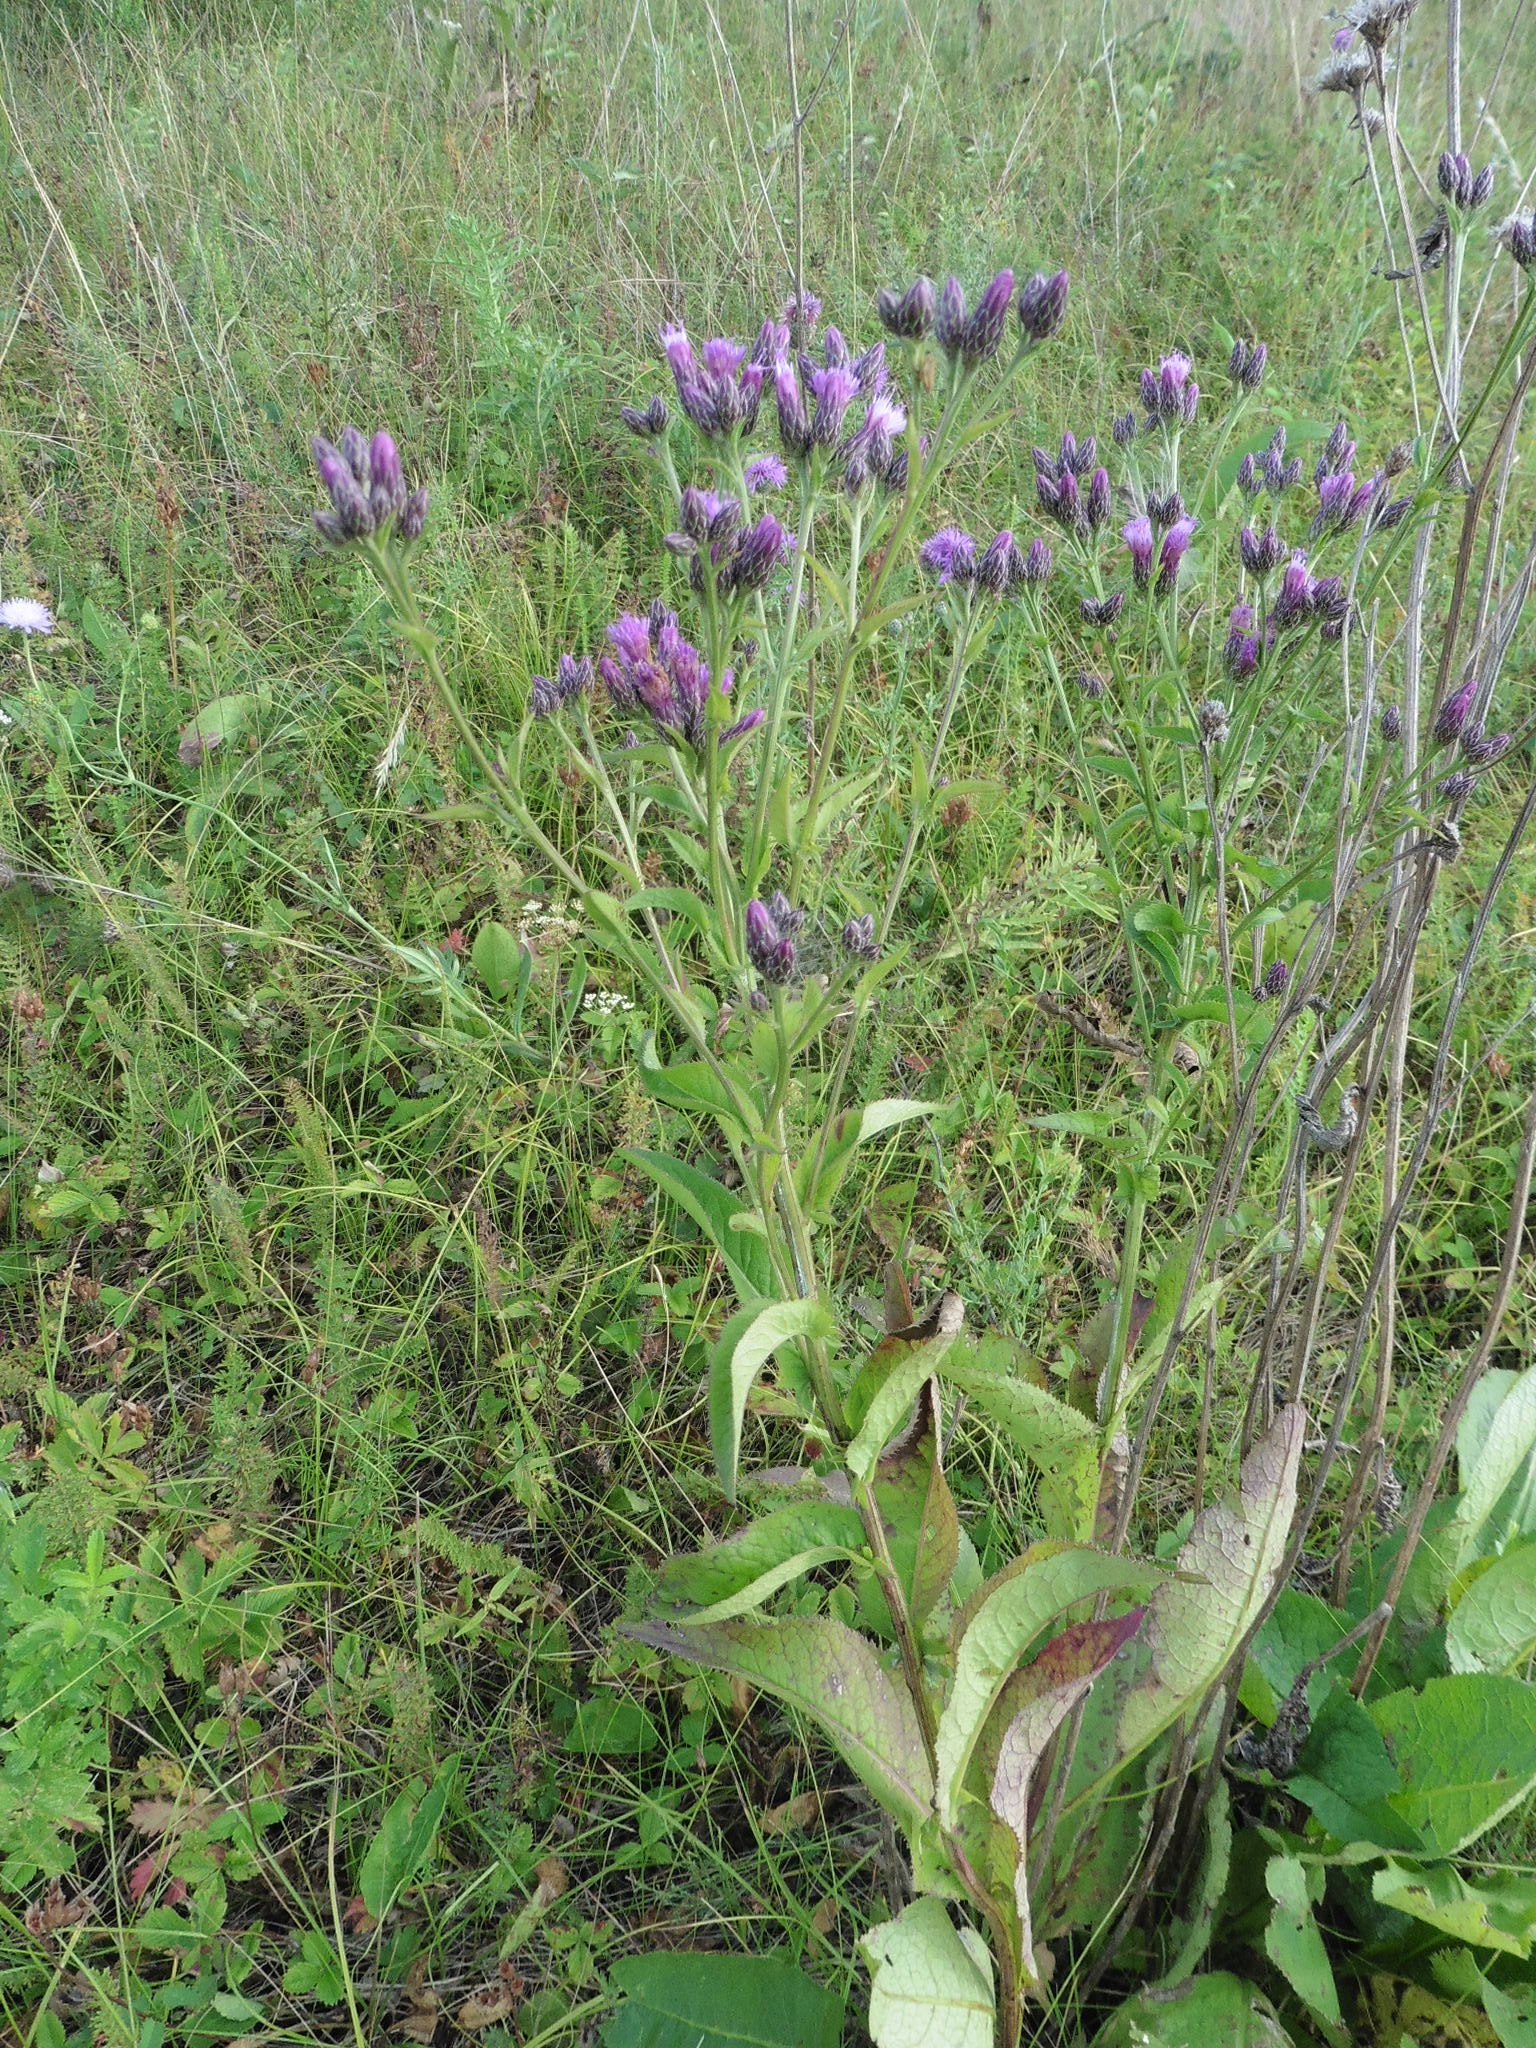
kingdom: Plantae
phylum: Tracheophyta
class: Magnoliopsida
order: Asterales
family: Asteraceae
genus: Serratula
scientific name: Serratula tinctoria
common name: Saw-wort
